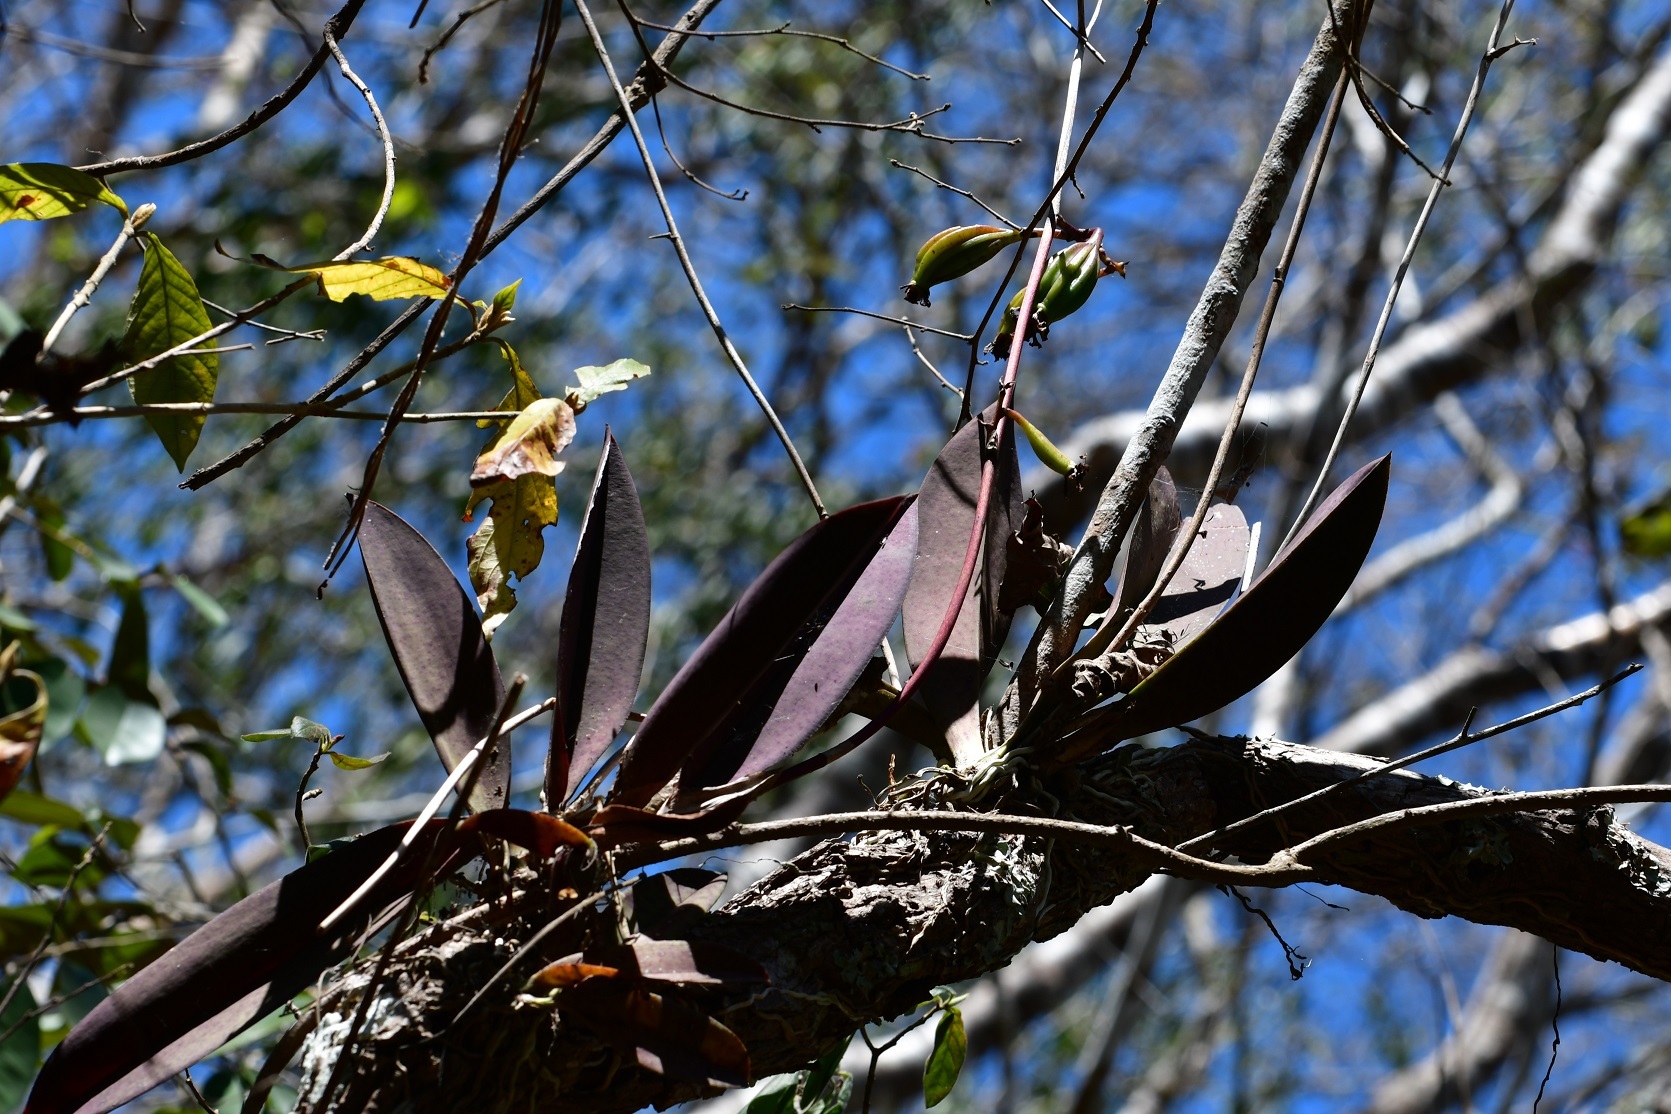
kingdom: Plantae
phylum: Tracheophyta
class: Liliopsida
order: Asparagales
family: Orchidaceae
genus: Trichocentrum
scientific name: Trichocentrum andreanum
